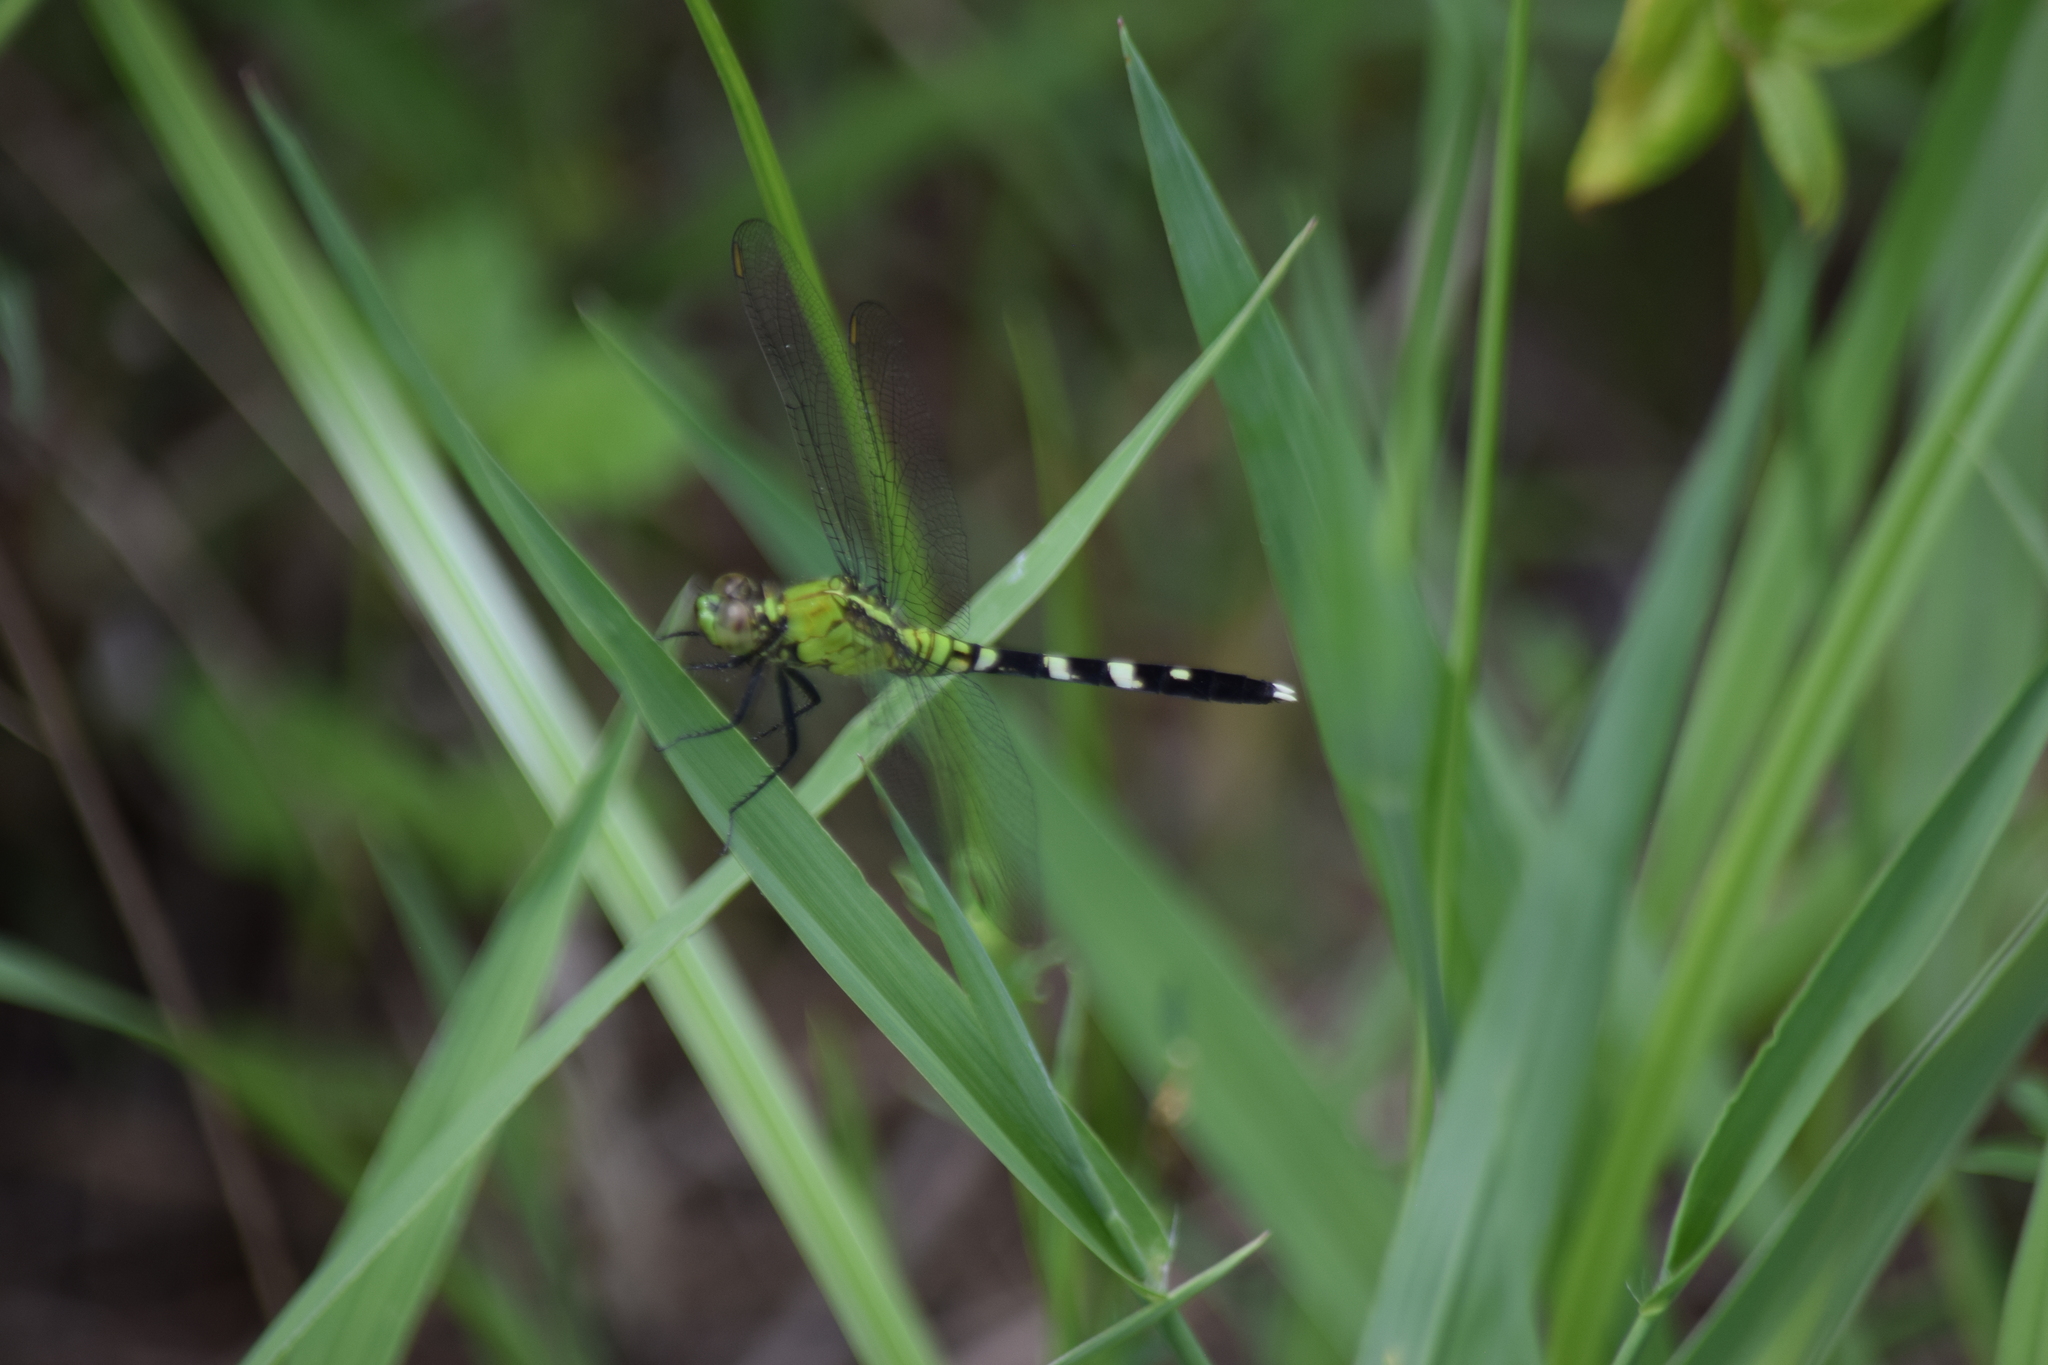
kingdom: Animalia
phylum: Arthropoda
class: Insecta
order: Odonata
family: Libellulidae
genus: Erythemis
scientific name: Erythemis simplicicollis
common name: Eastern pondhawk
